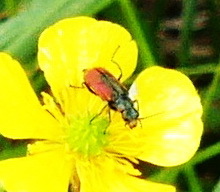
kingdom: Animalia
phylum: Arthropoda
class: Insecta
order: Coleoptera
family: Melyridae
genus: Malachius
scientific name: Malachius aeneus
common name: Scarlet malachite beetle
